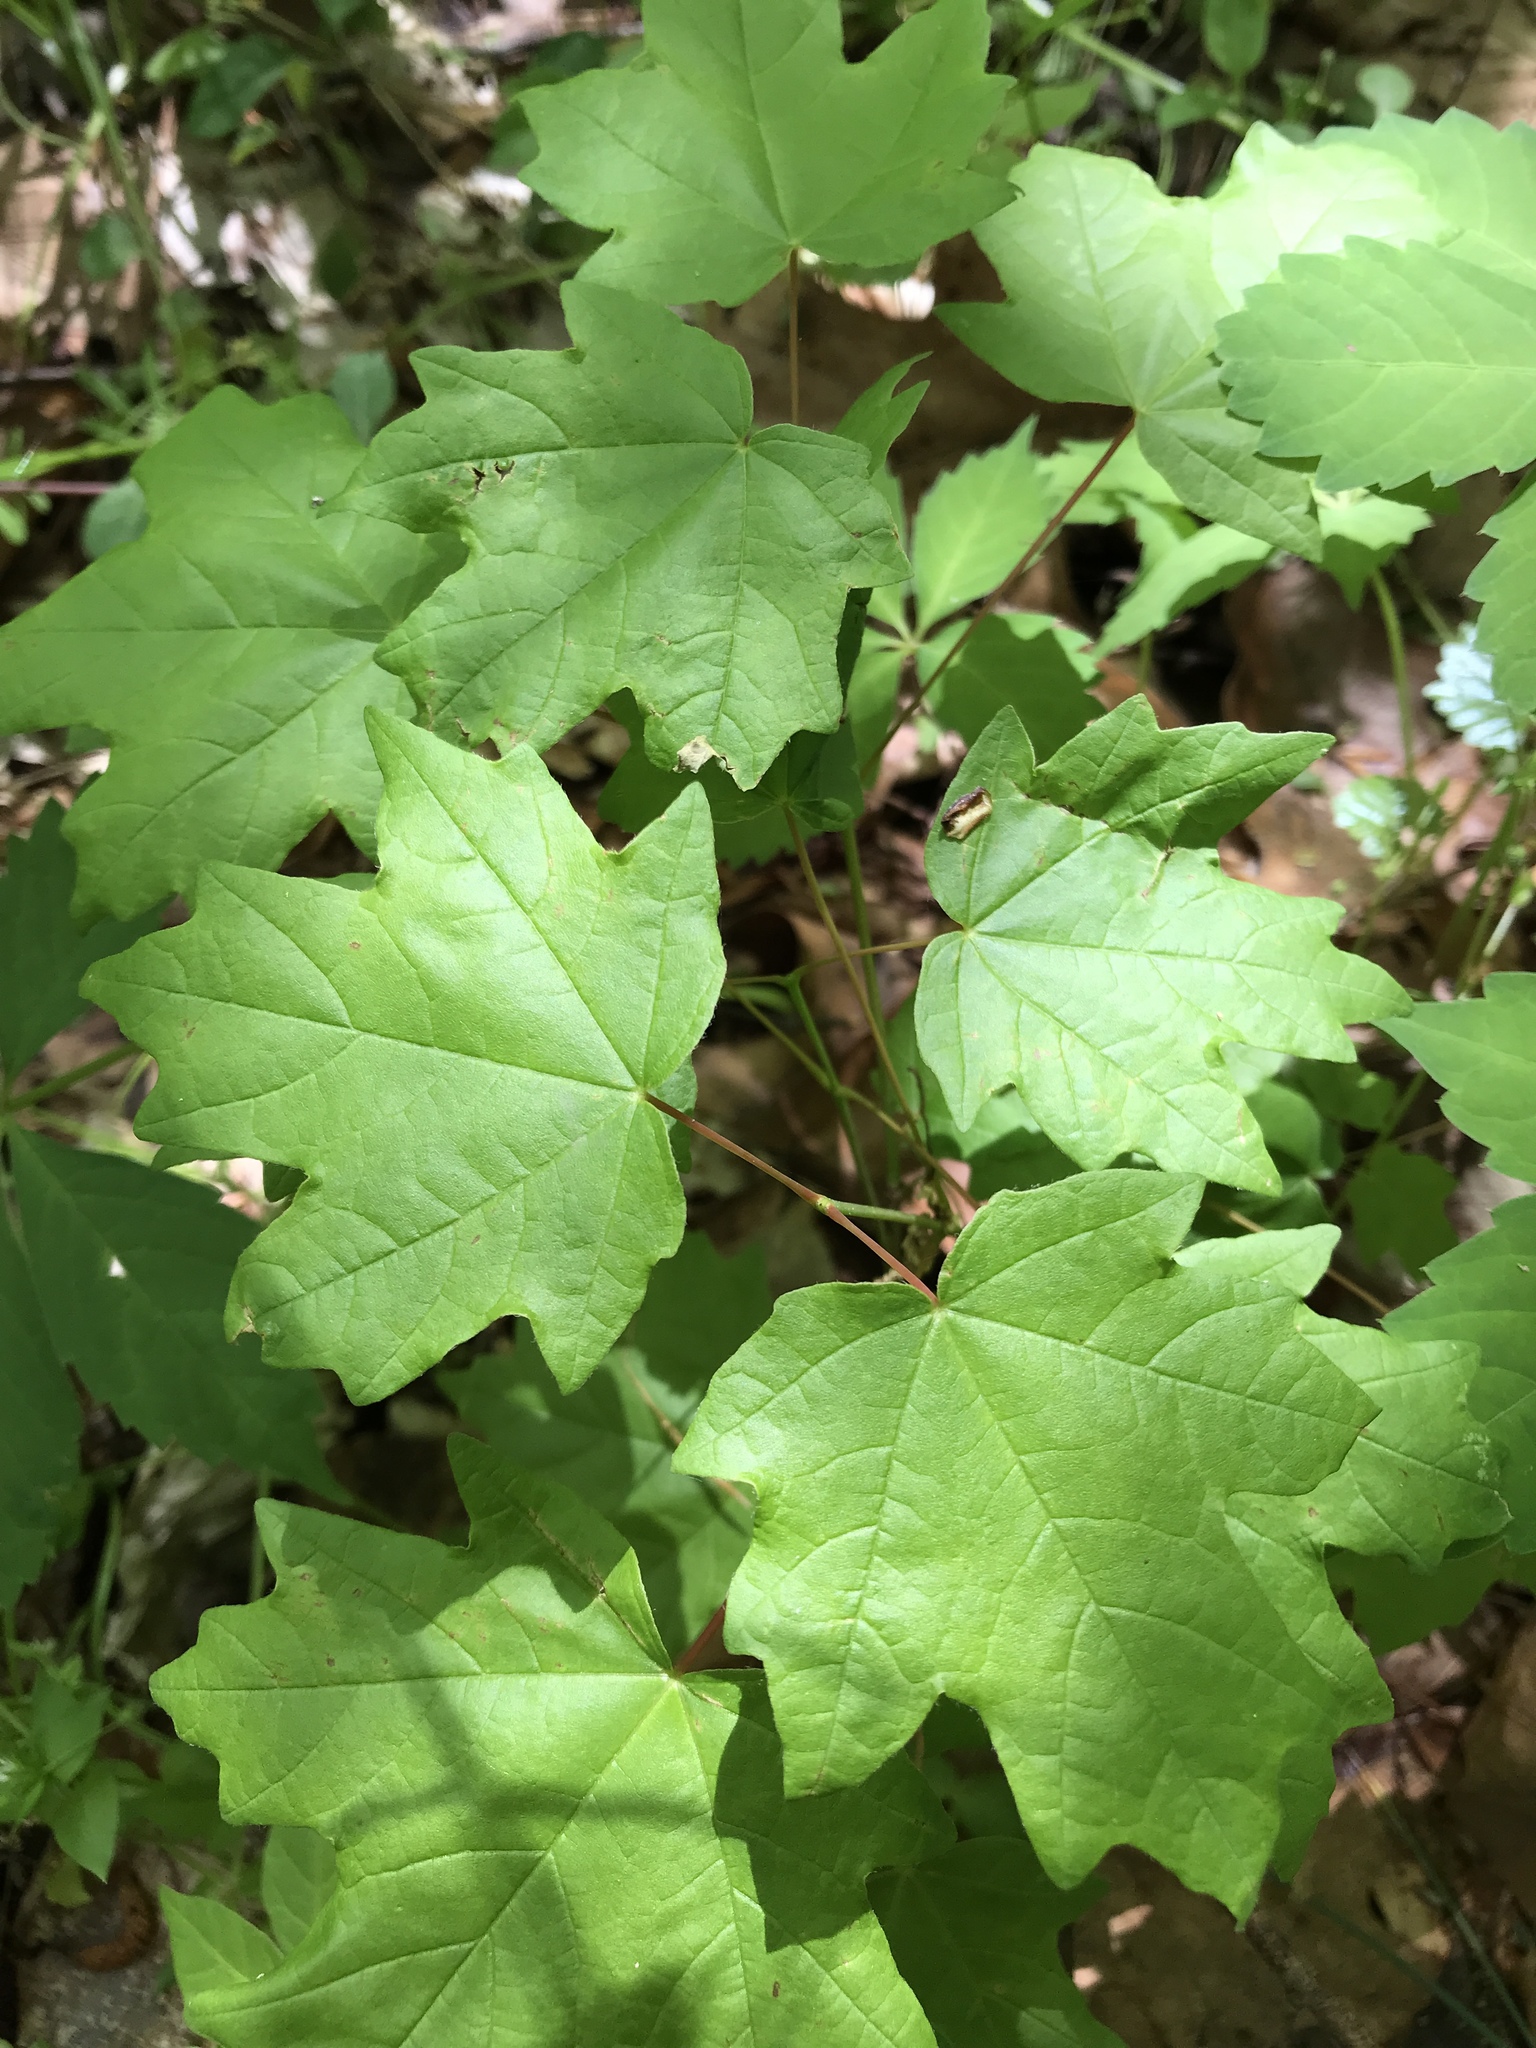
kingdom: Plantae
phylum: Tracheophyta
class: Magnoliopsida
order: Sapindales
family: Sapindaceae
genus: Acer
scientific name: Acer floridanum
